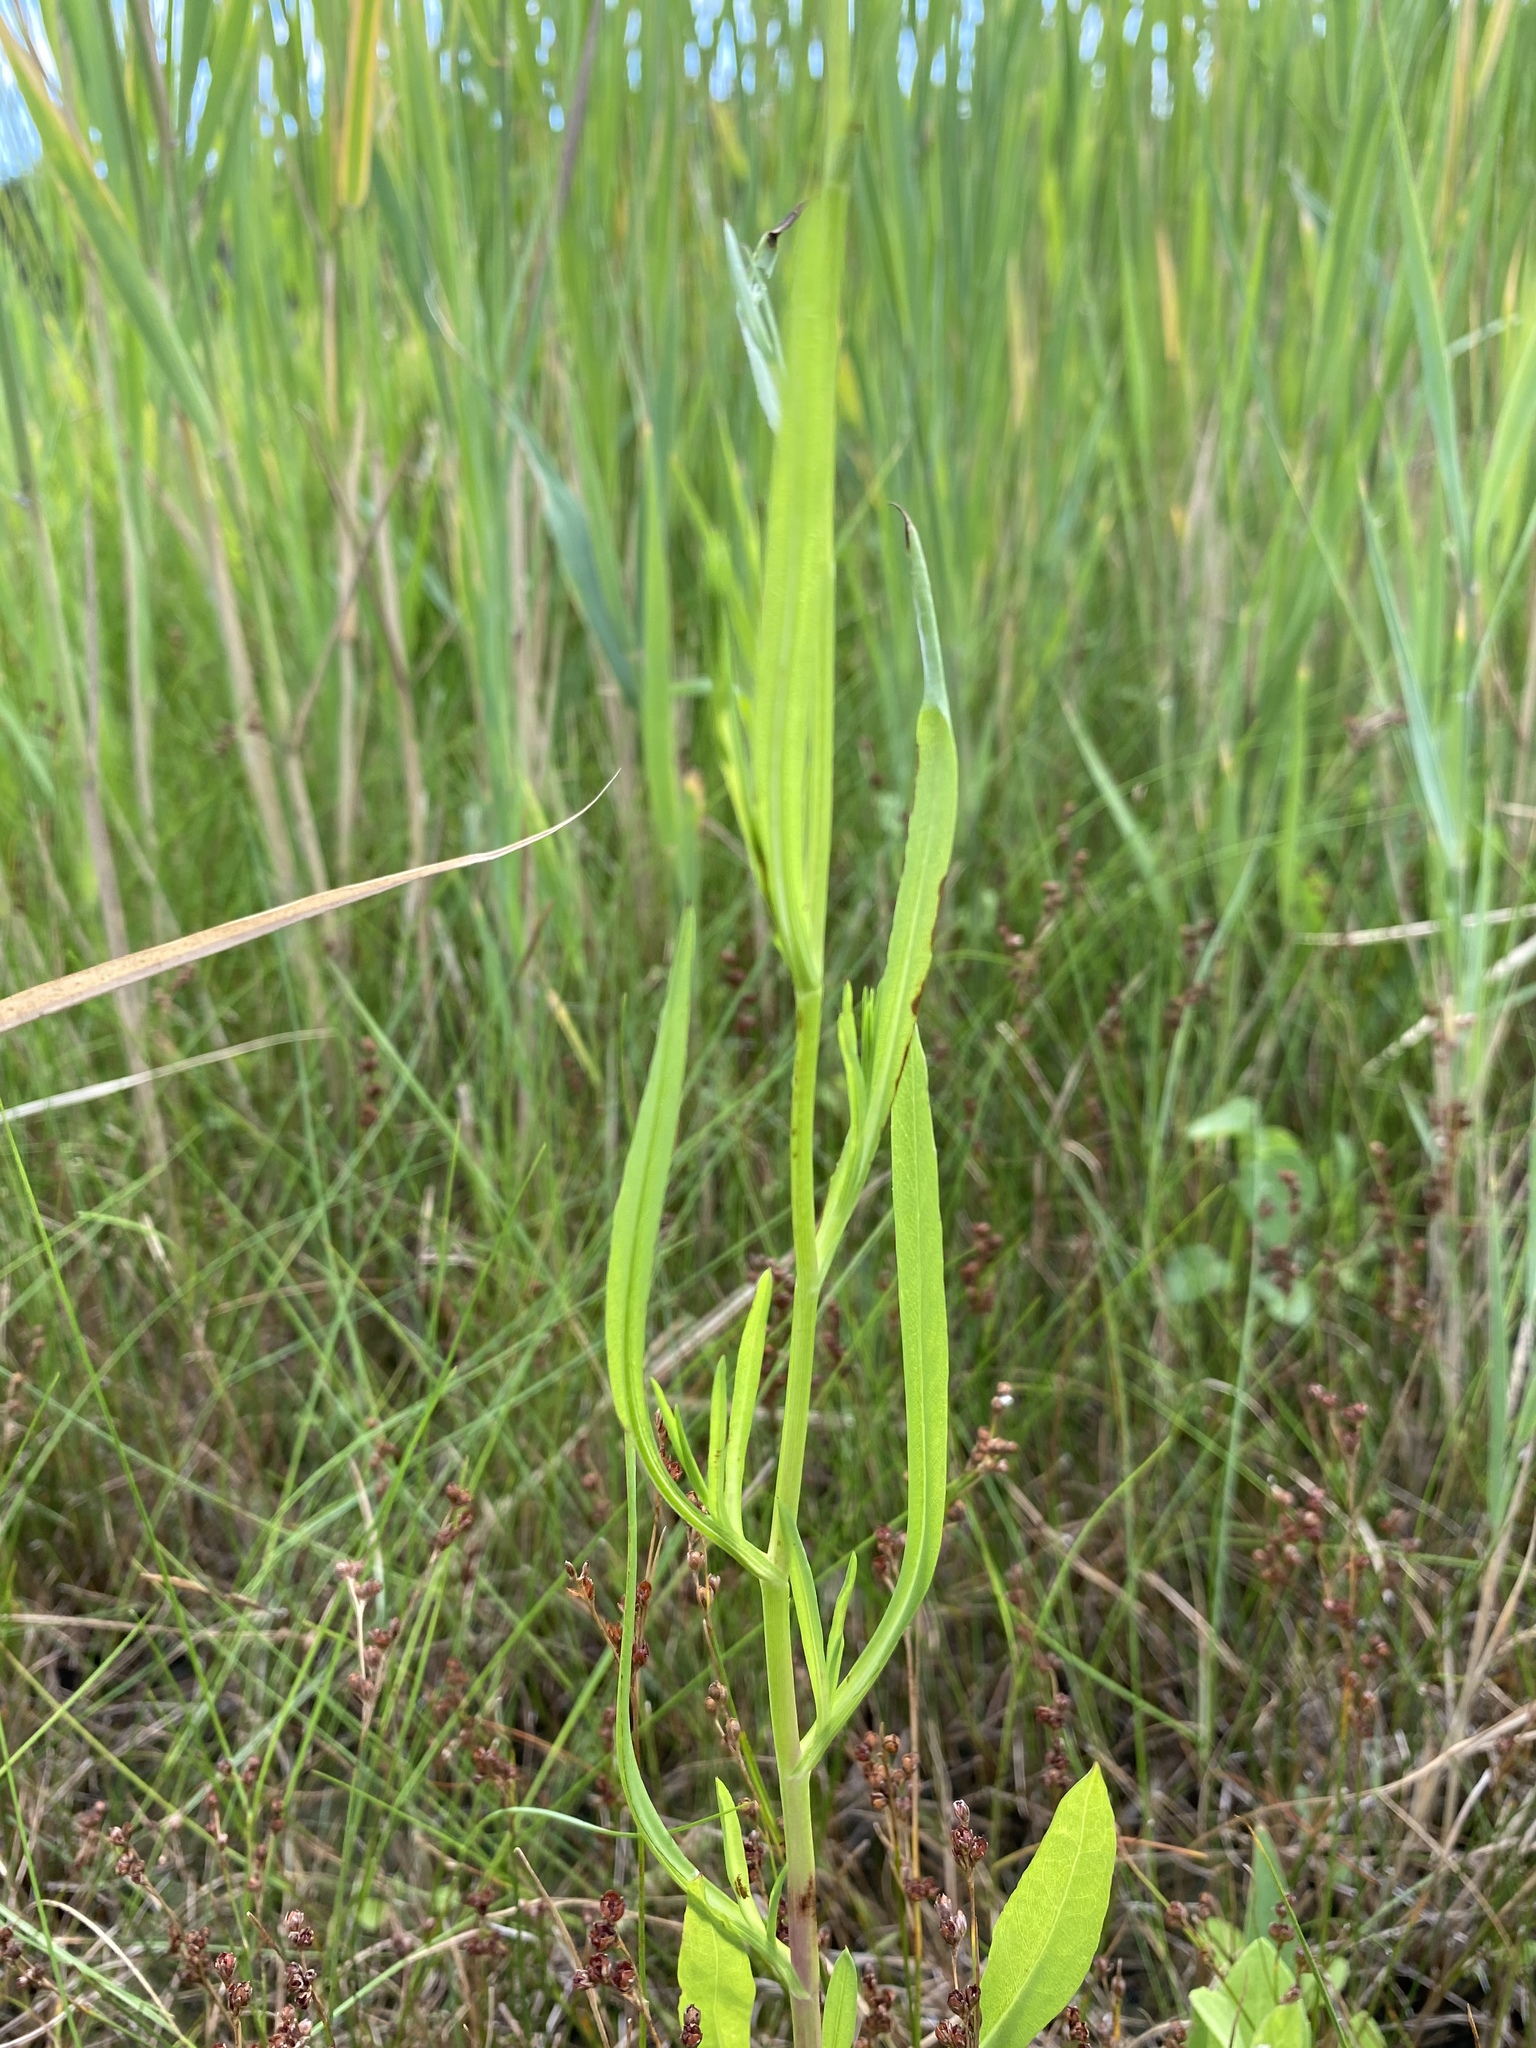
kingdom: Plantae
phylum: Tracheophyta
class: Magnoliopsida
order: Asterales
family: Asteraceae
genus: Symphyotrichum
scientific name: Symphyotrichum subulatum
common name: Annual saltmarsh aster
